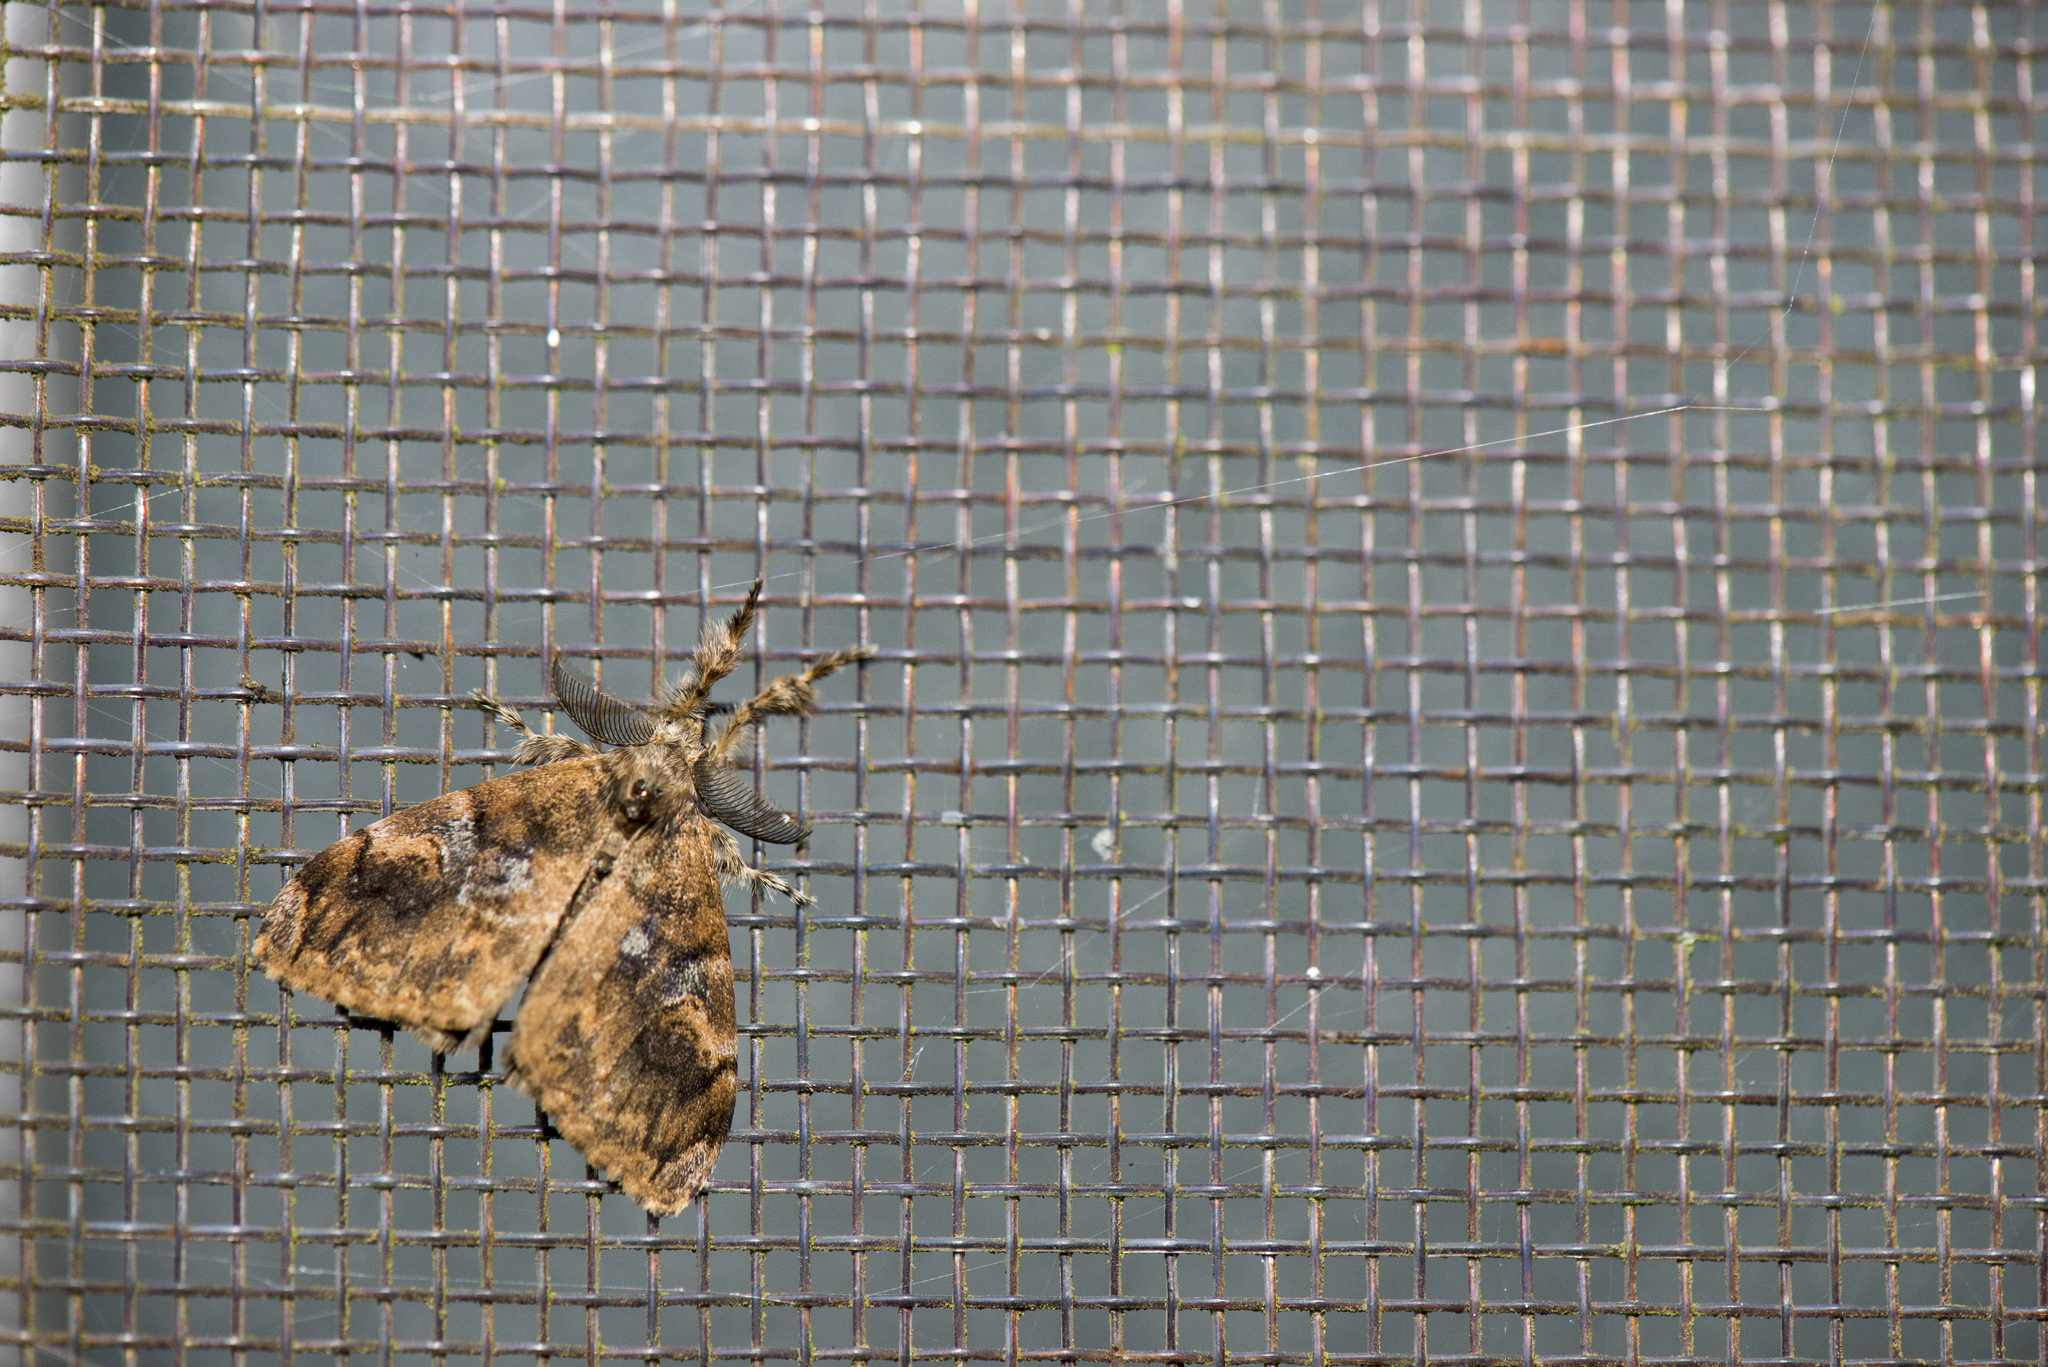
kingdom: Animalia
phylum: Arthropoda
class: Insecta
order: Lepidoptera
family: Erebidae
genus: Orgyia
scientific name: Orgyia postica
